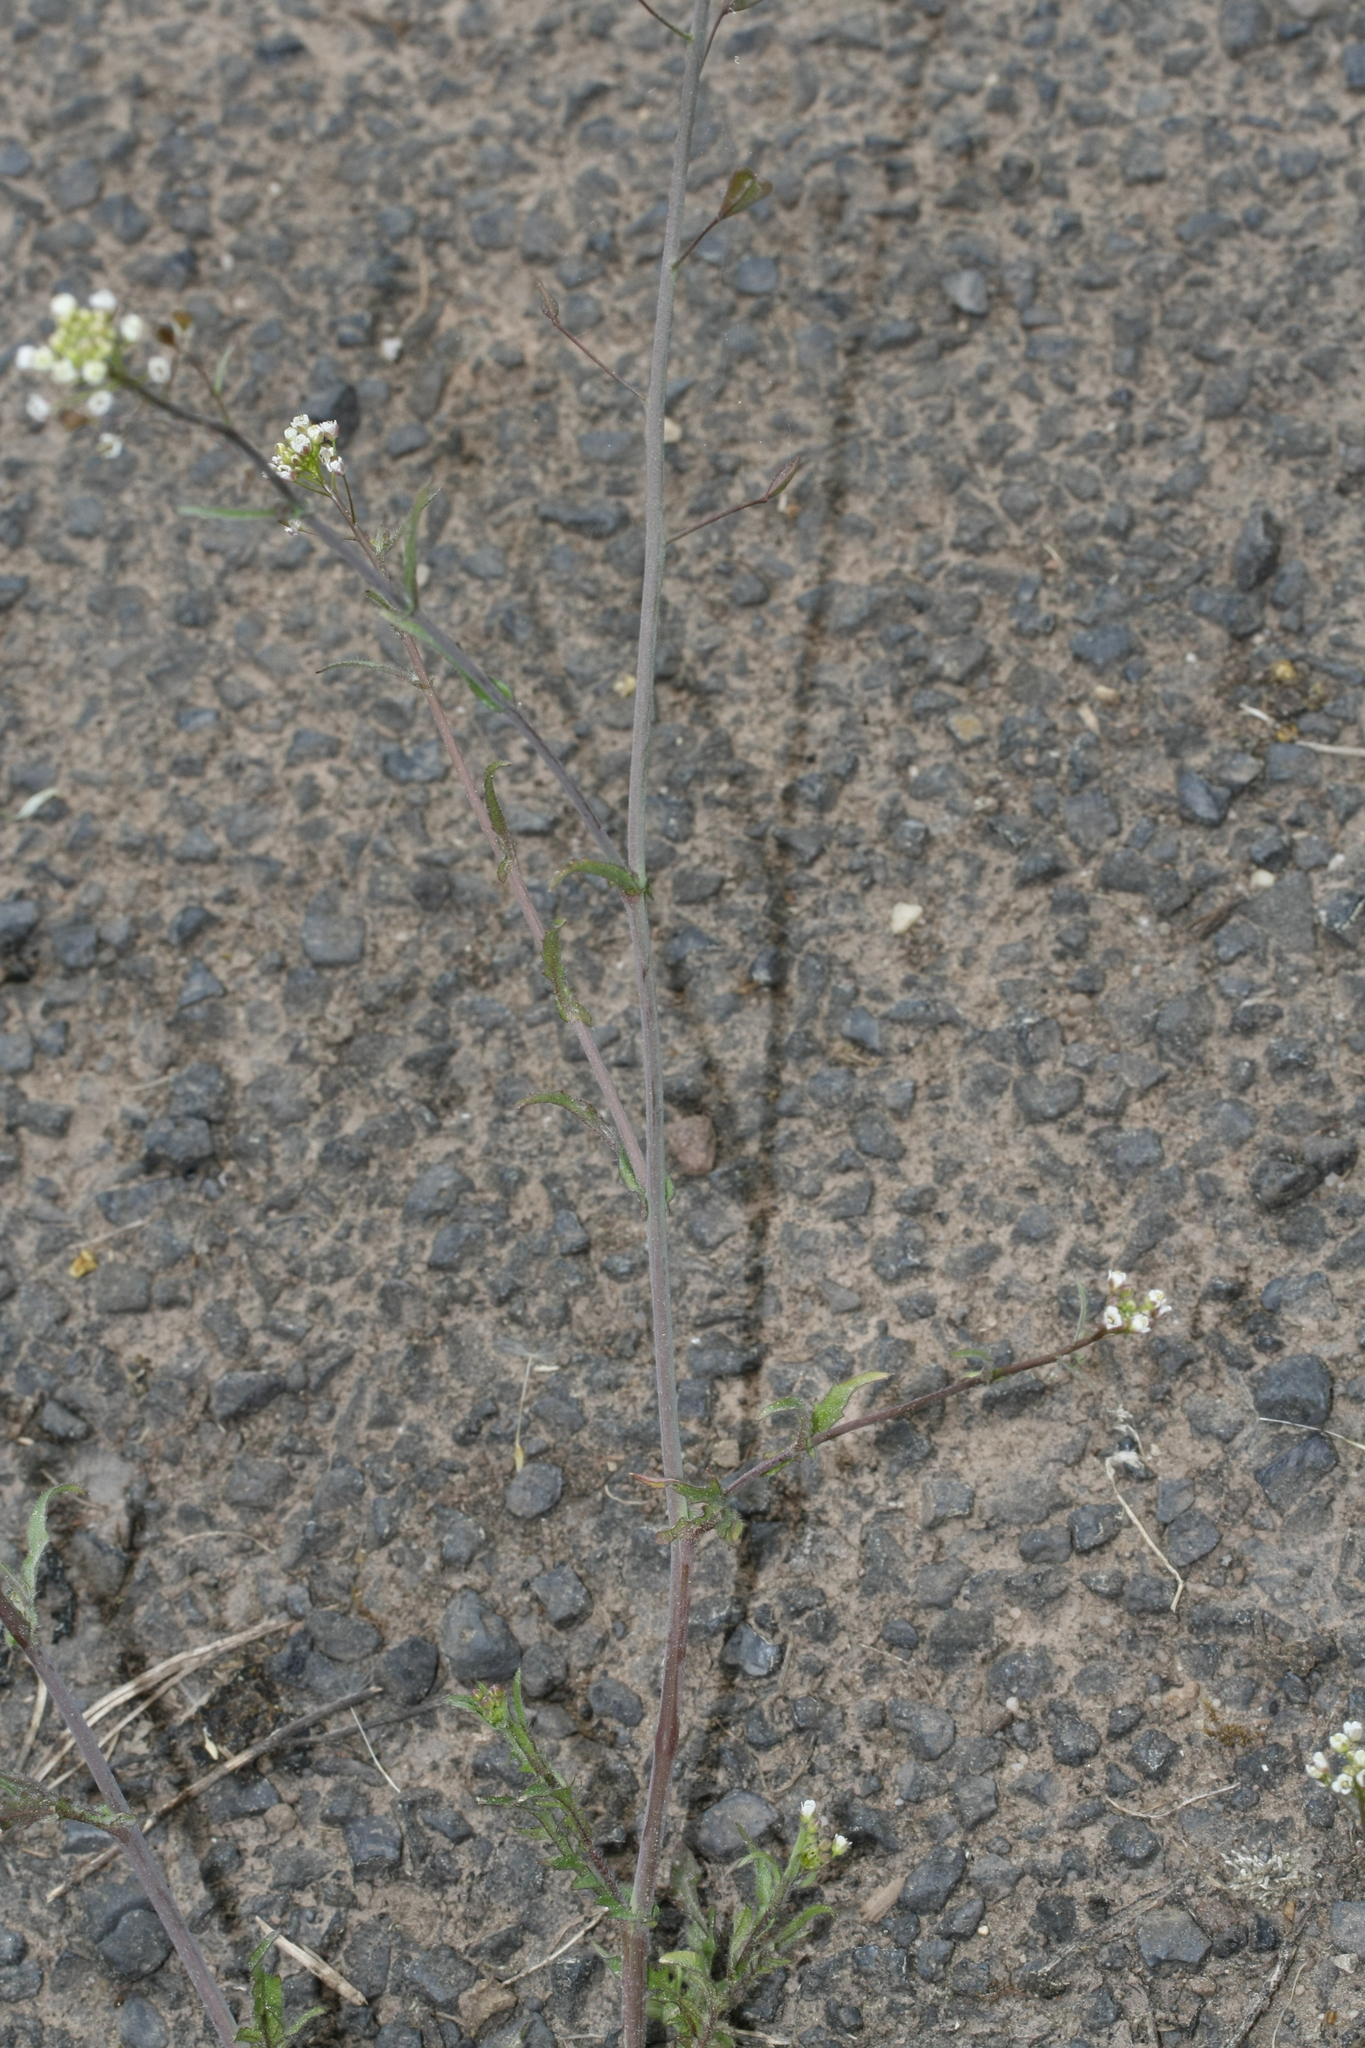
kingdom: Plantae
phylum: Tracheophyta
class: Magnoliopsida
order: Brassicales
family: Brassicaceae
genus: Capsella
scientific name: Capsella bursa-pastoris
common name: Shepherd's purse
